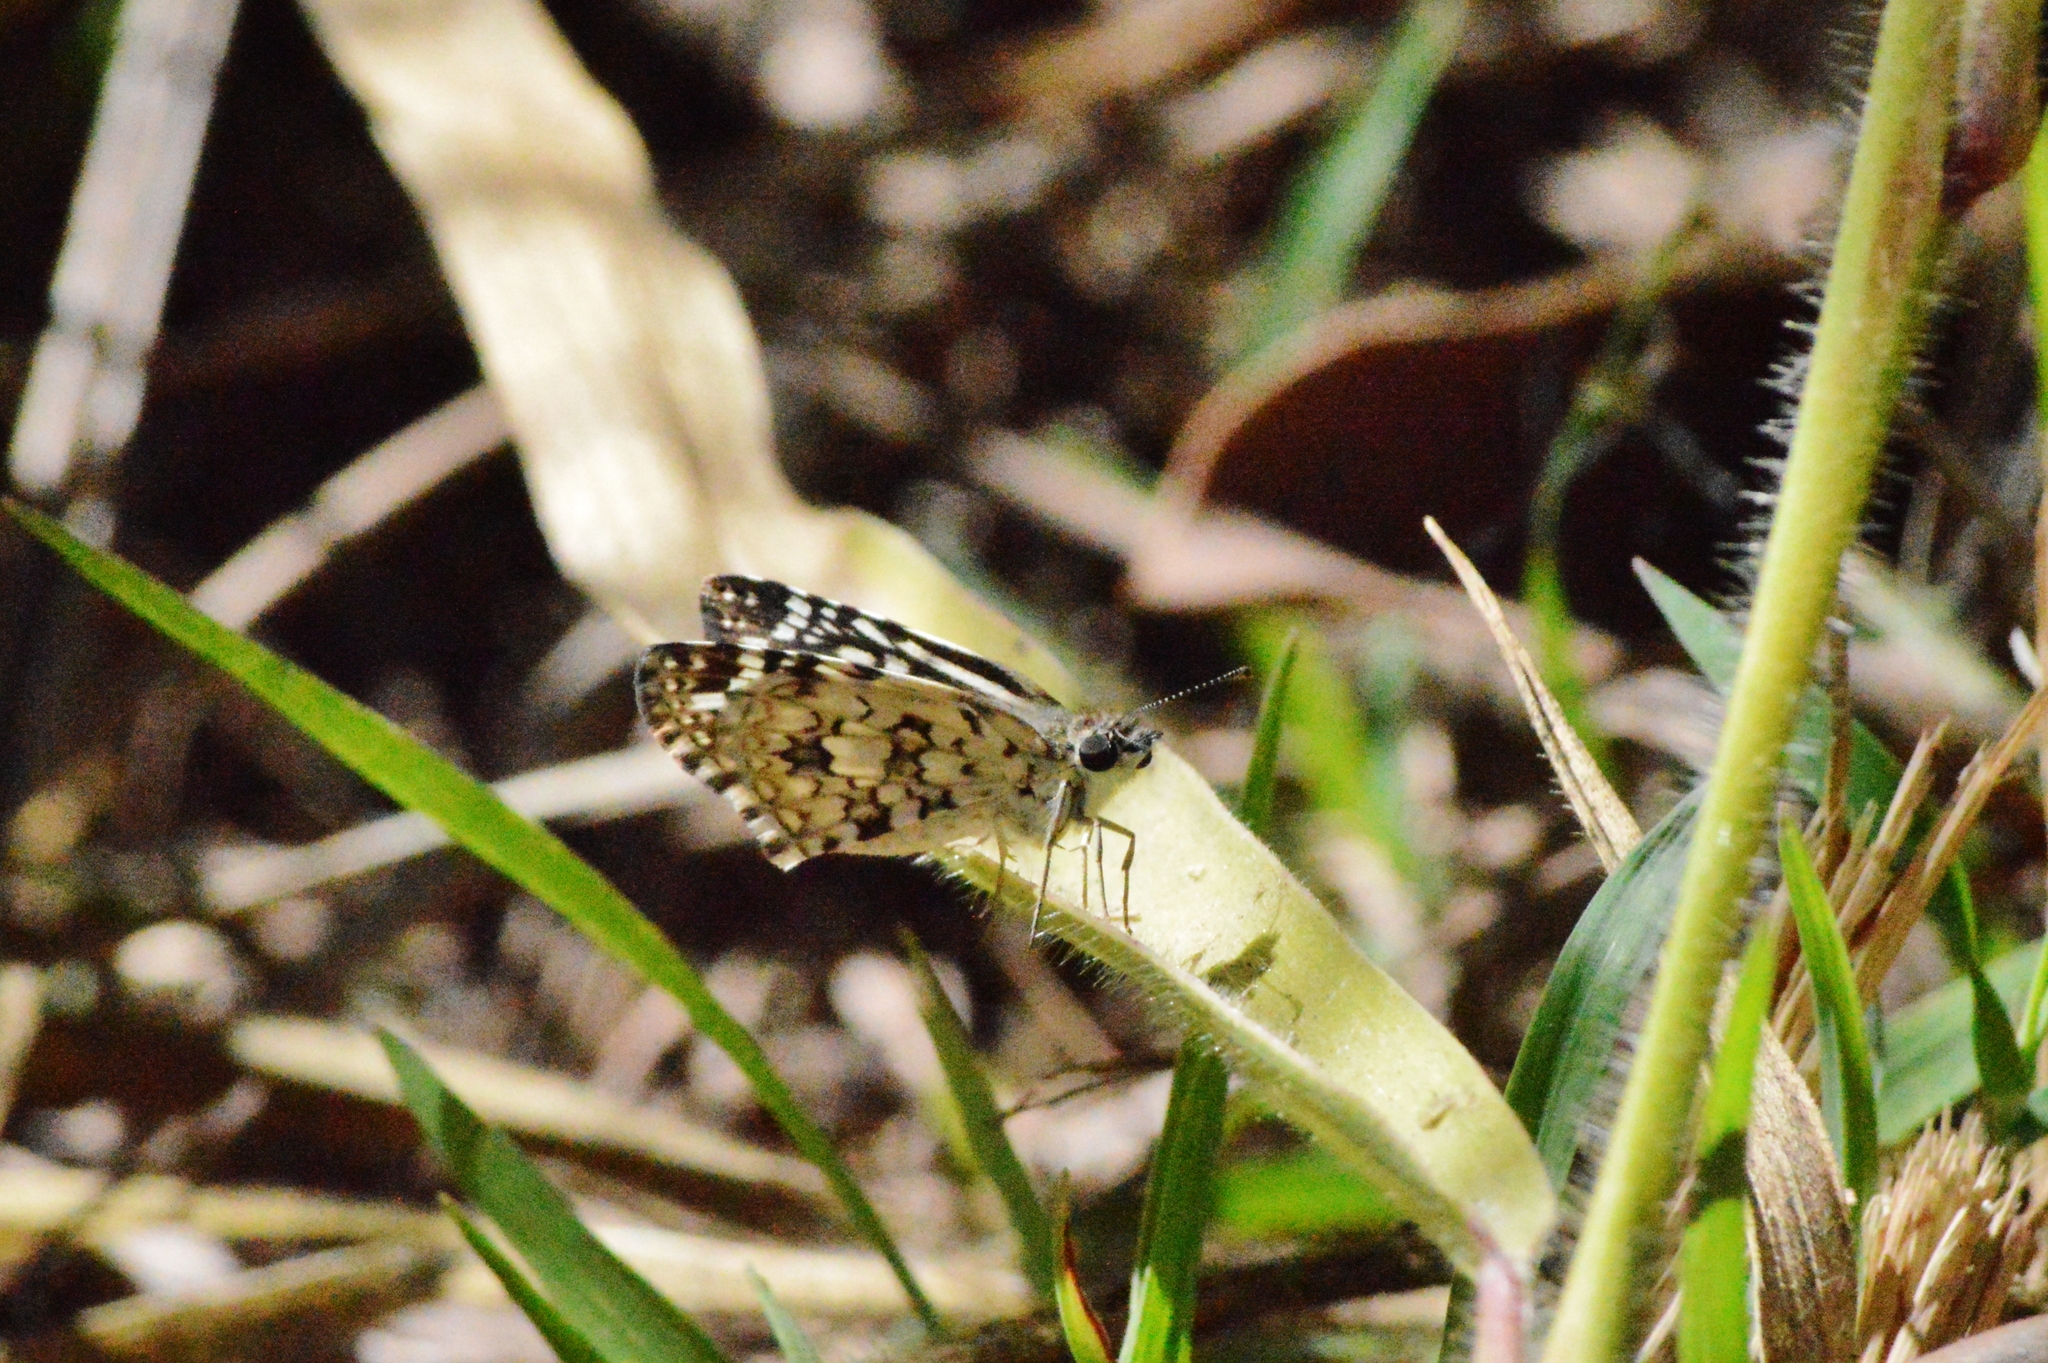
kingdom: Animalia
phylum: Arthropoda
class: Insecta
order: Lepidoptera
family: Hesperiidae
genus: Pyrgus
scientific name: Pyrgus oileus
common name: Tropical checkered-skipper
